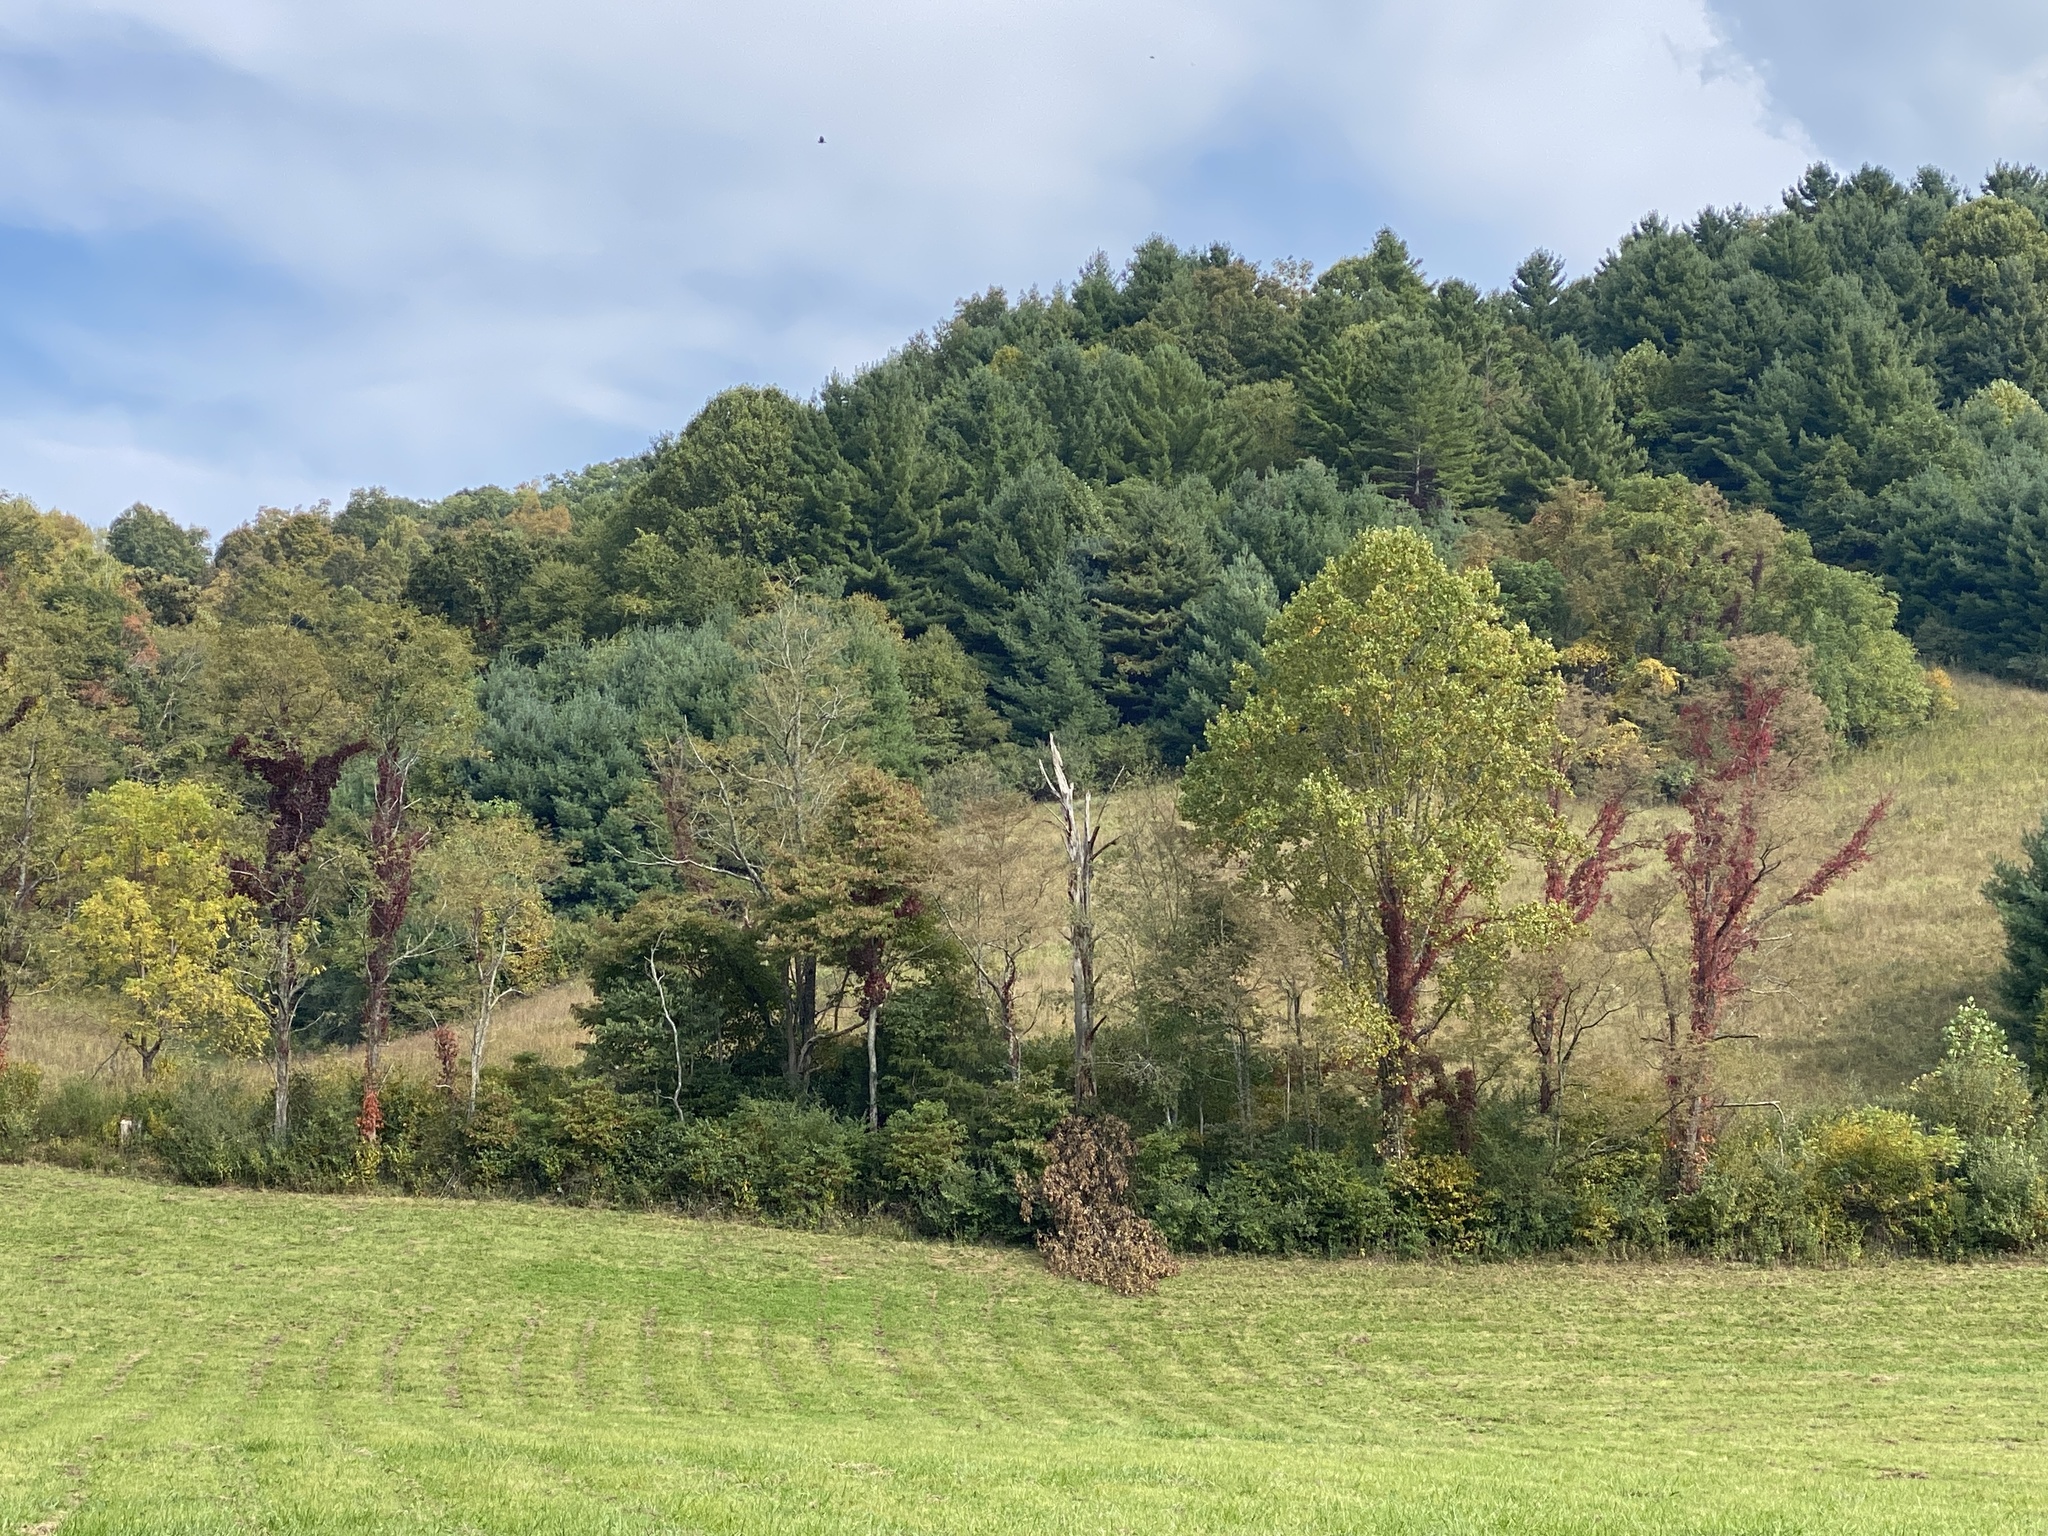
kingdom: Plantae
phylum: Tracheophyta
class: Magnoliopsida
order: Vitales
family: Vitaceae
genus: Parthenocissus
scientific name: Parthenocissus quinquefolia
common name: Virginia-creeper
